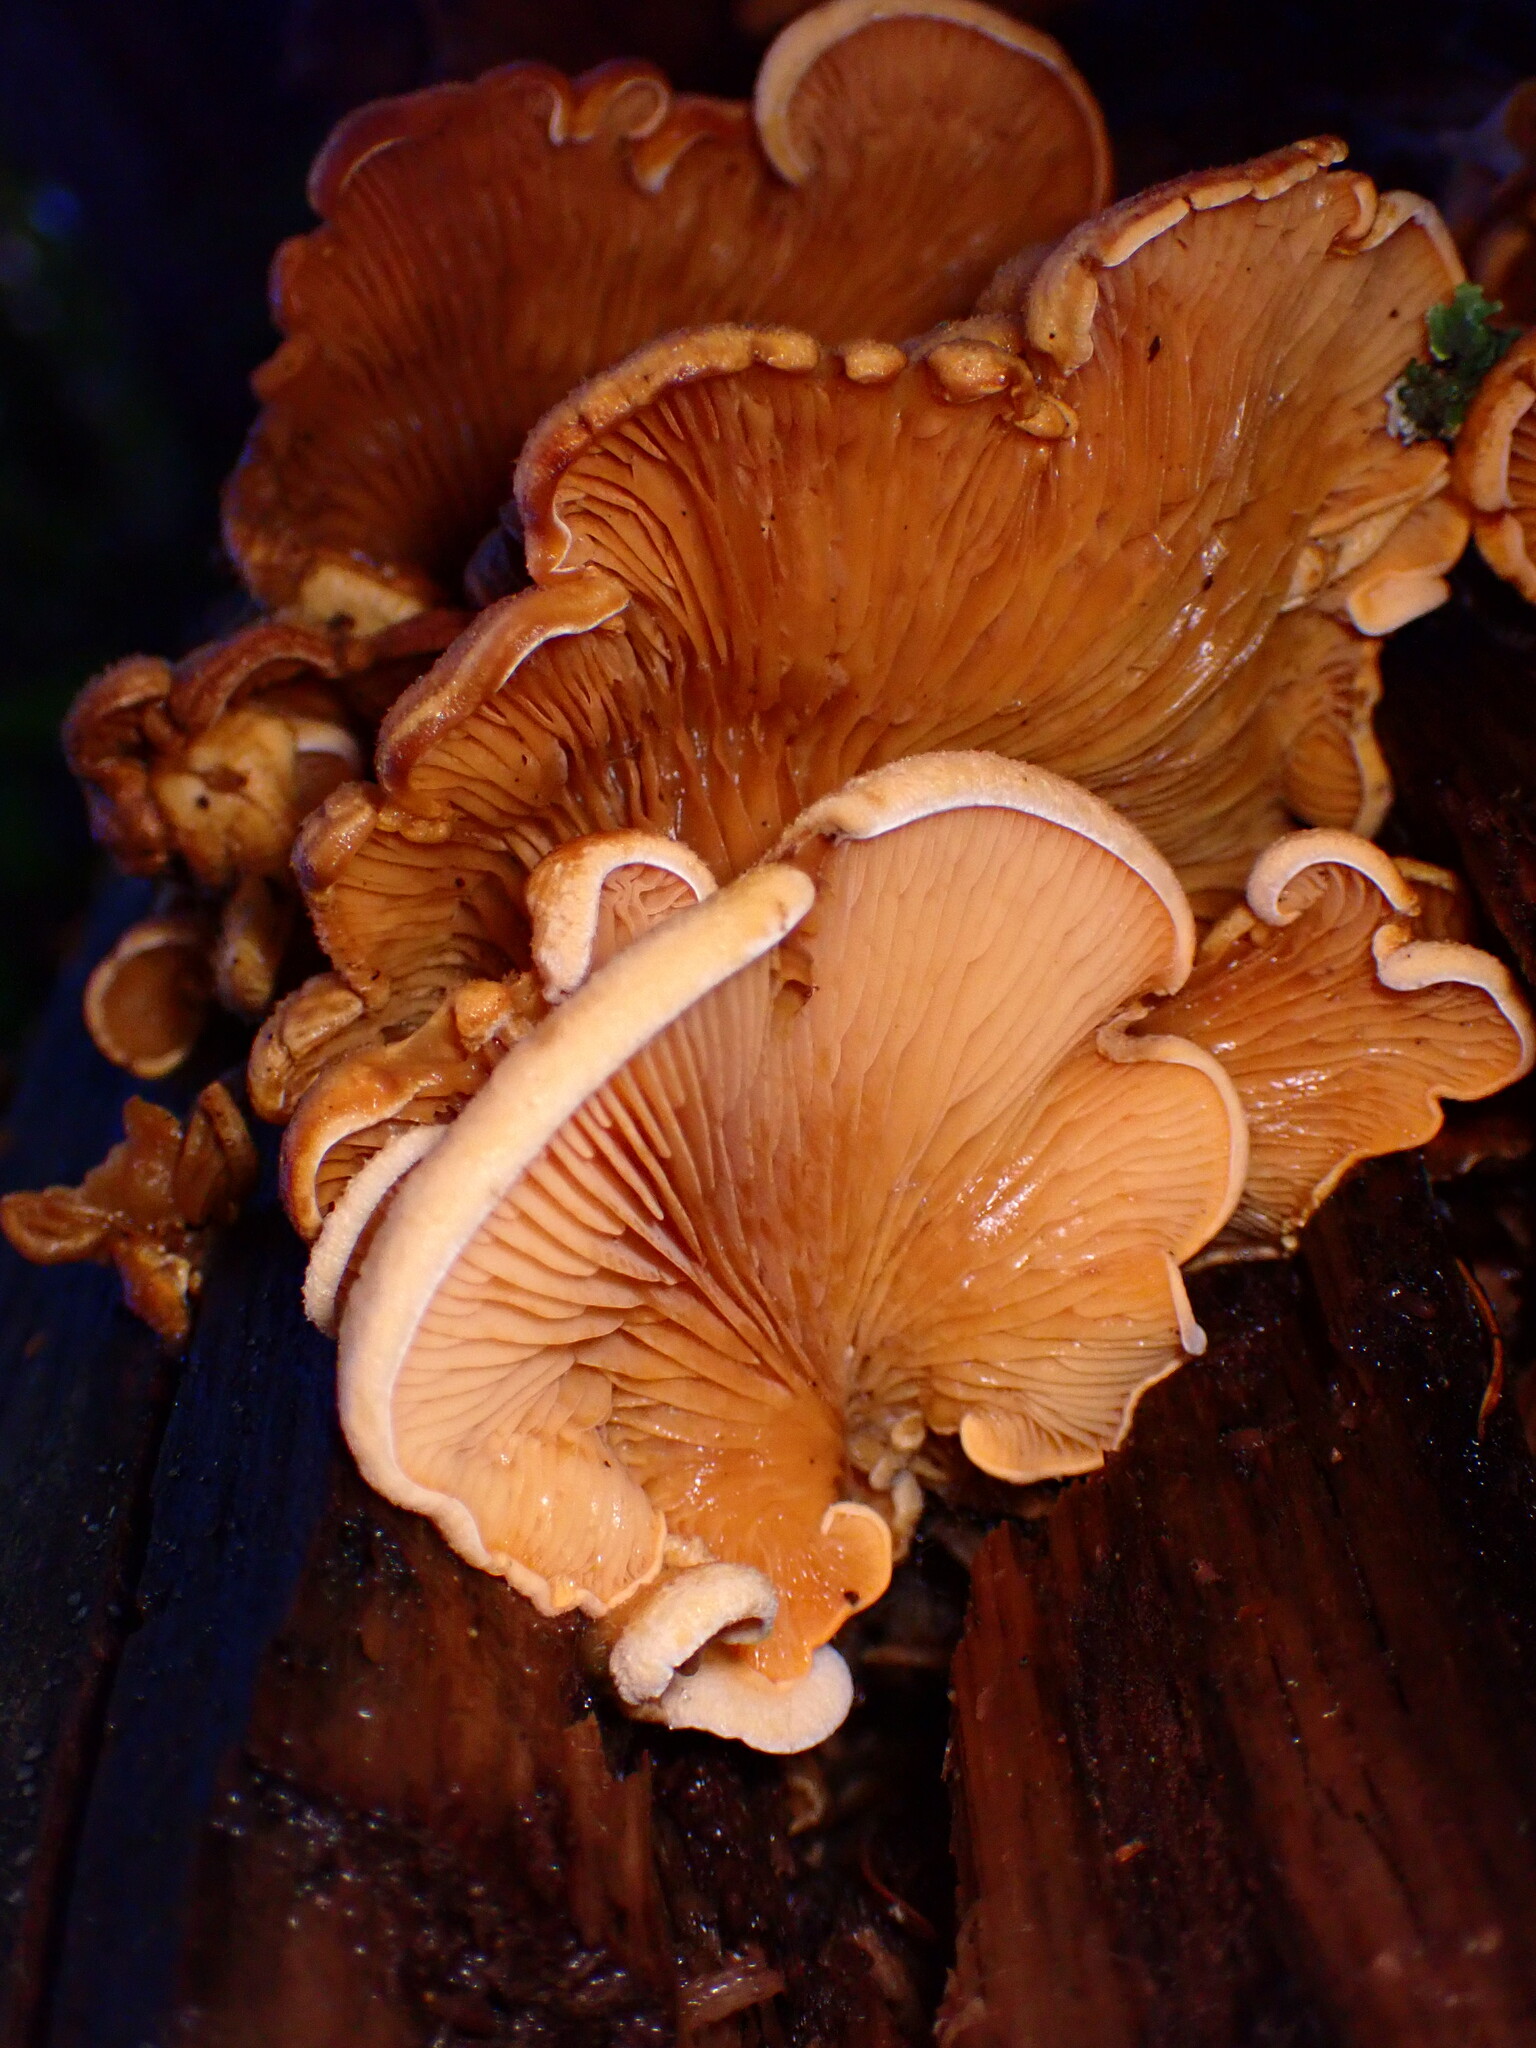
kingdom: Fungi
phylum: Basidiomycota
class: Agaricomycetes
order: Agaricales
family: Phyllotopsidaceae
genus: Phyllotopsis
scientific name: Phyllotopsis nidulans
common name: Orange mock oyster
